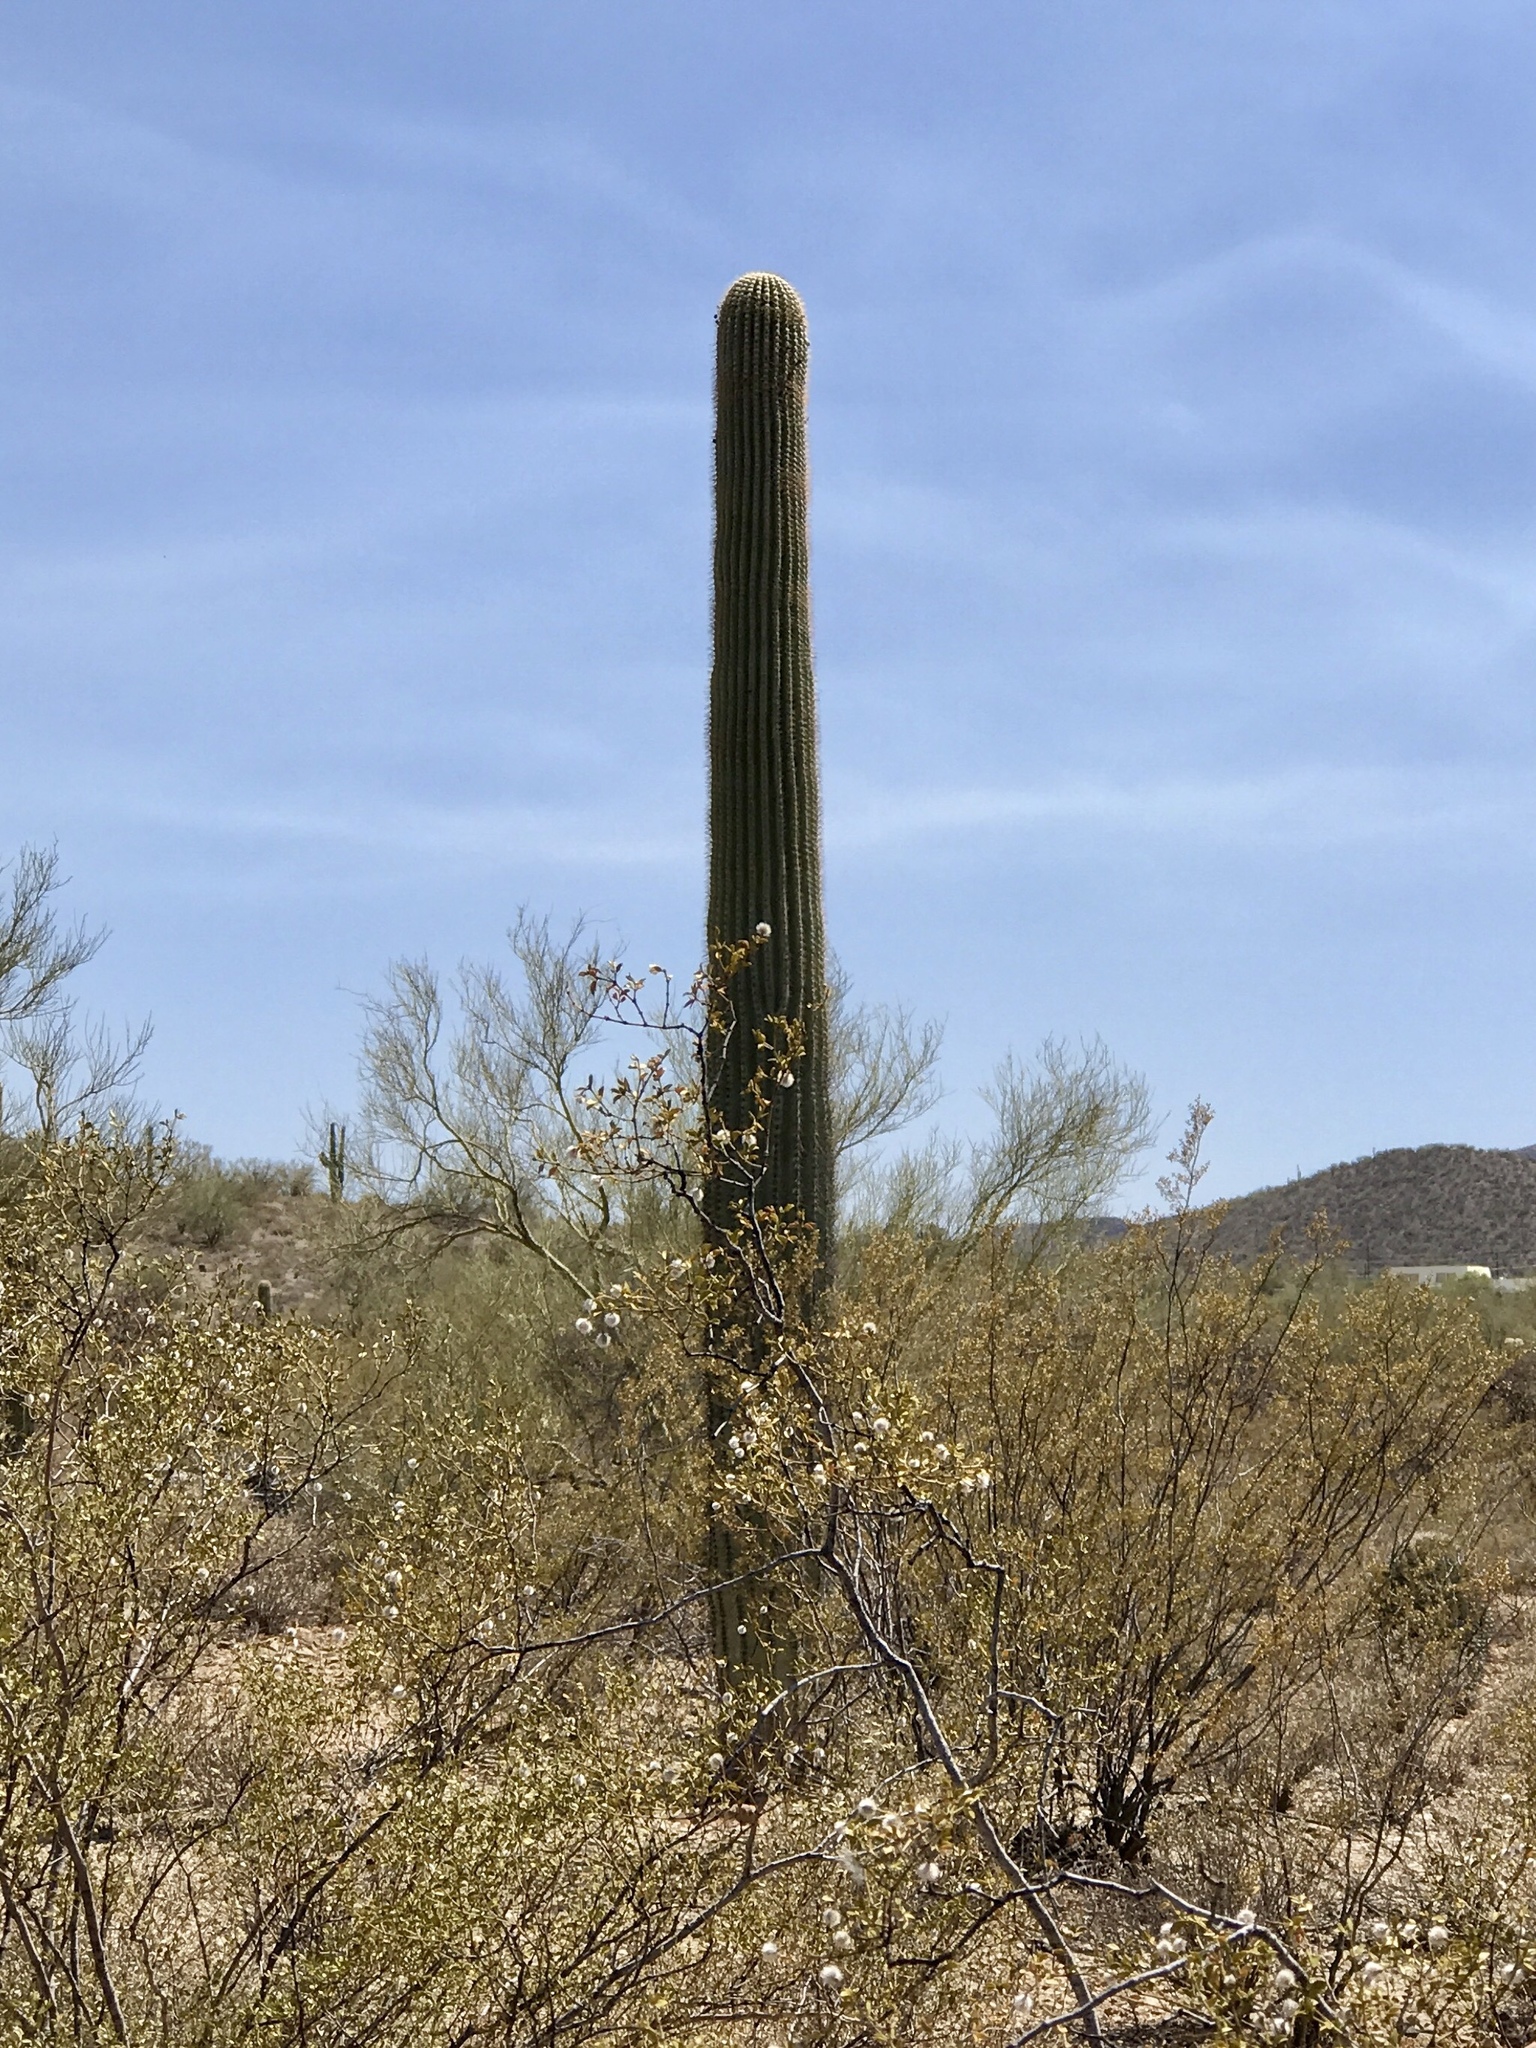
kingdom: Plantae
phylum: Tracheophyta
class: Magnoliopsida
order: Caryophyllales
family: Cactaceae
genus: Carnegiea
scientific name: Carnegiea gigantea
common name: Saguaro
